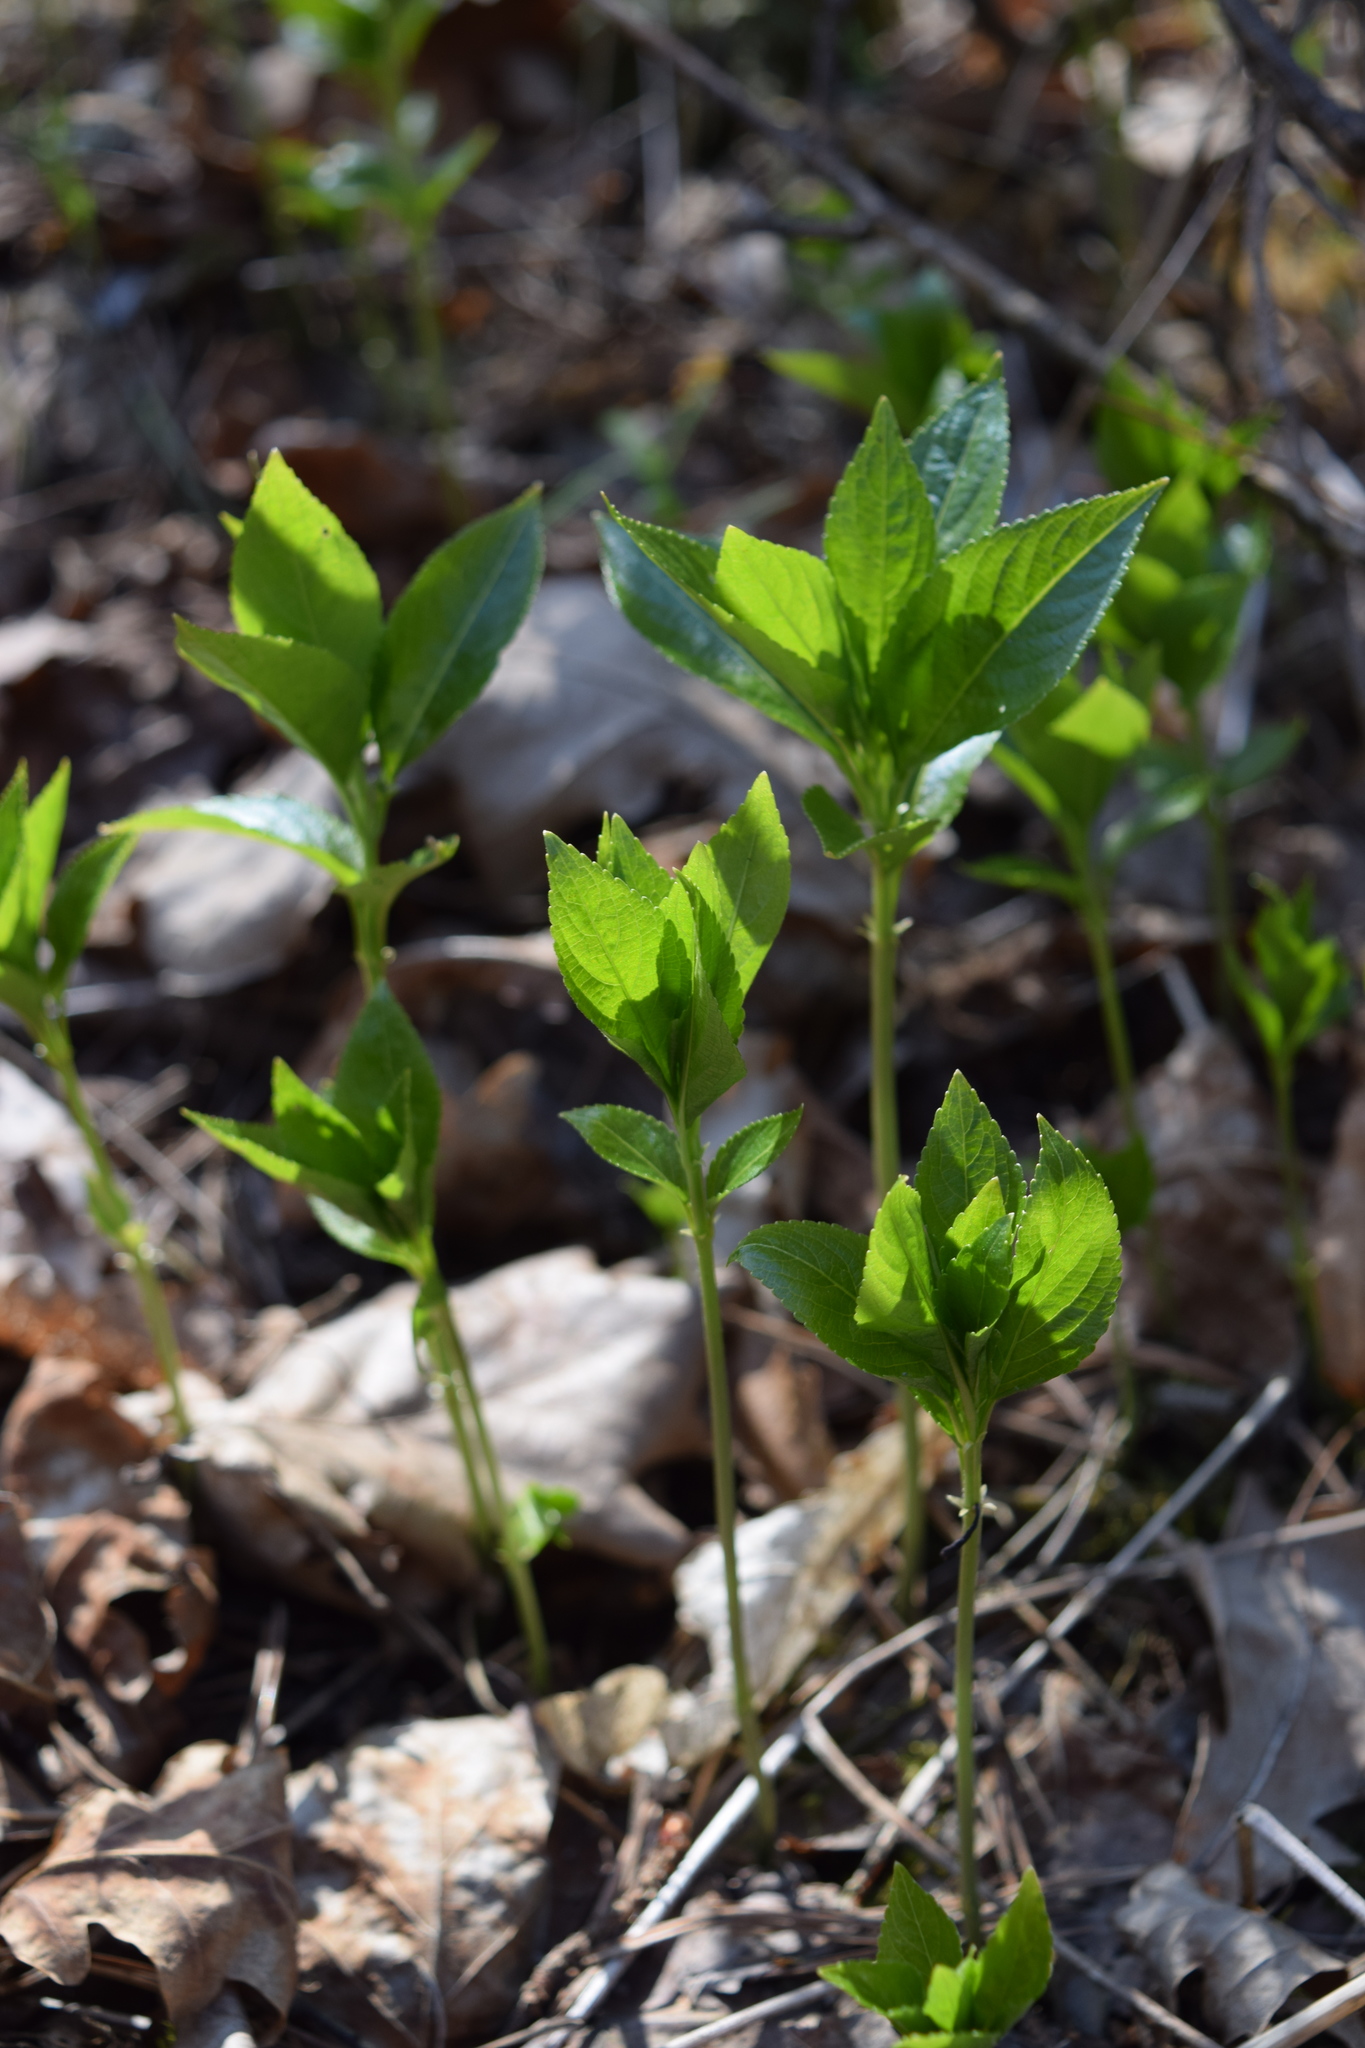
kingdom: Plantae
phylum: Tracheophyta
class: Magnoliopsida
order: Malpighiales
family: Euphorbiaceae
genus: Mercurialis
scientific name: Mercurialis perennis
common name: Dog mercury
